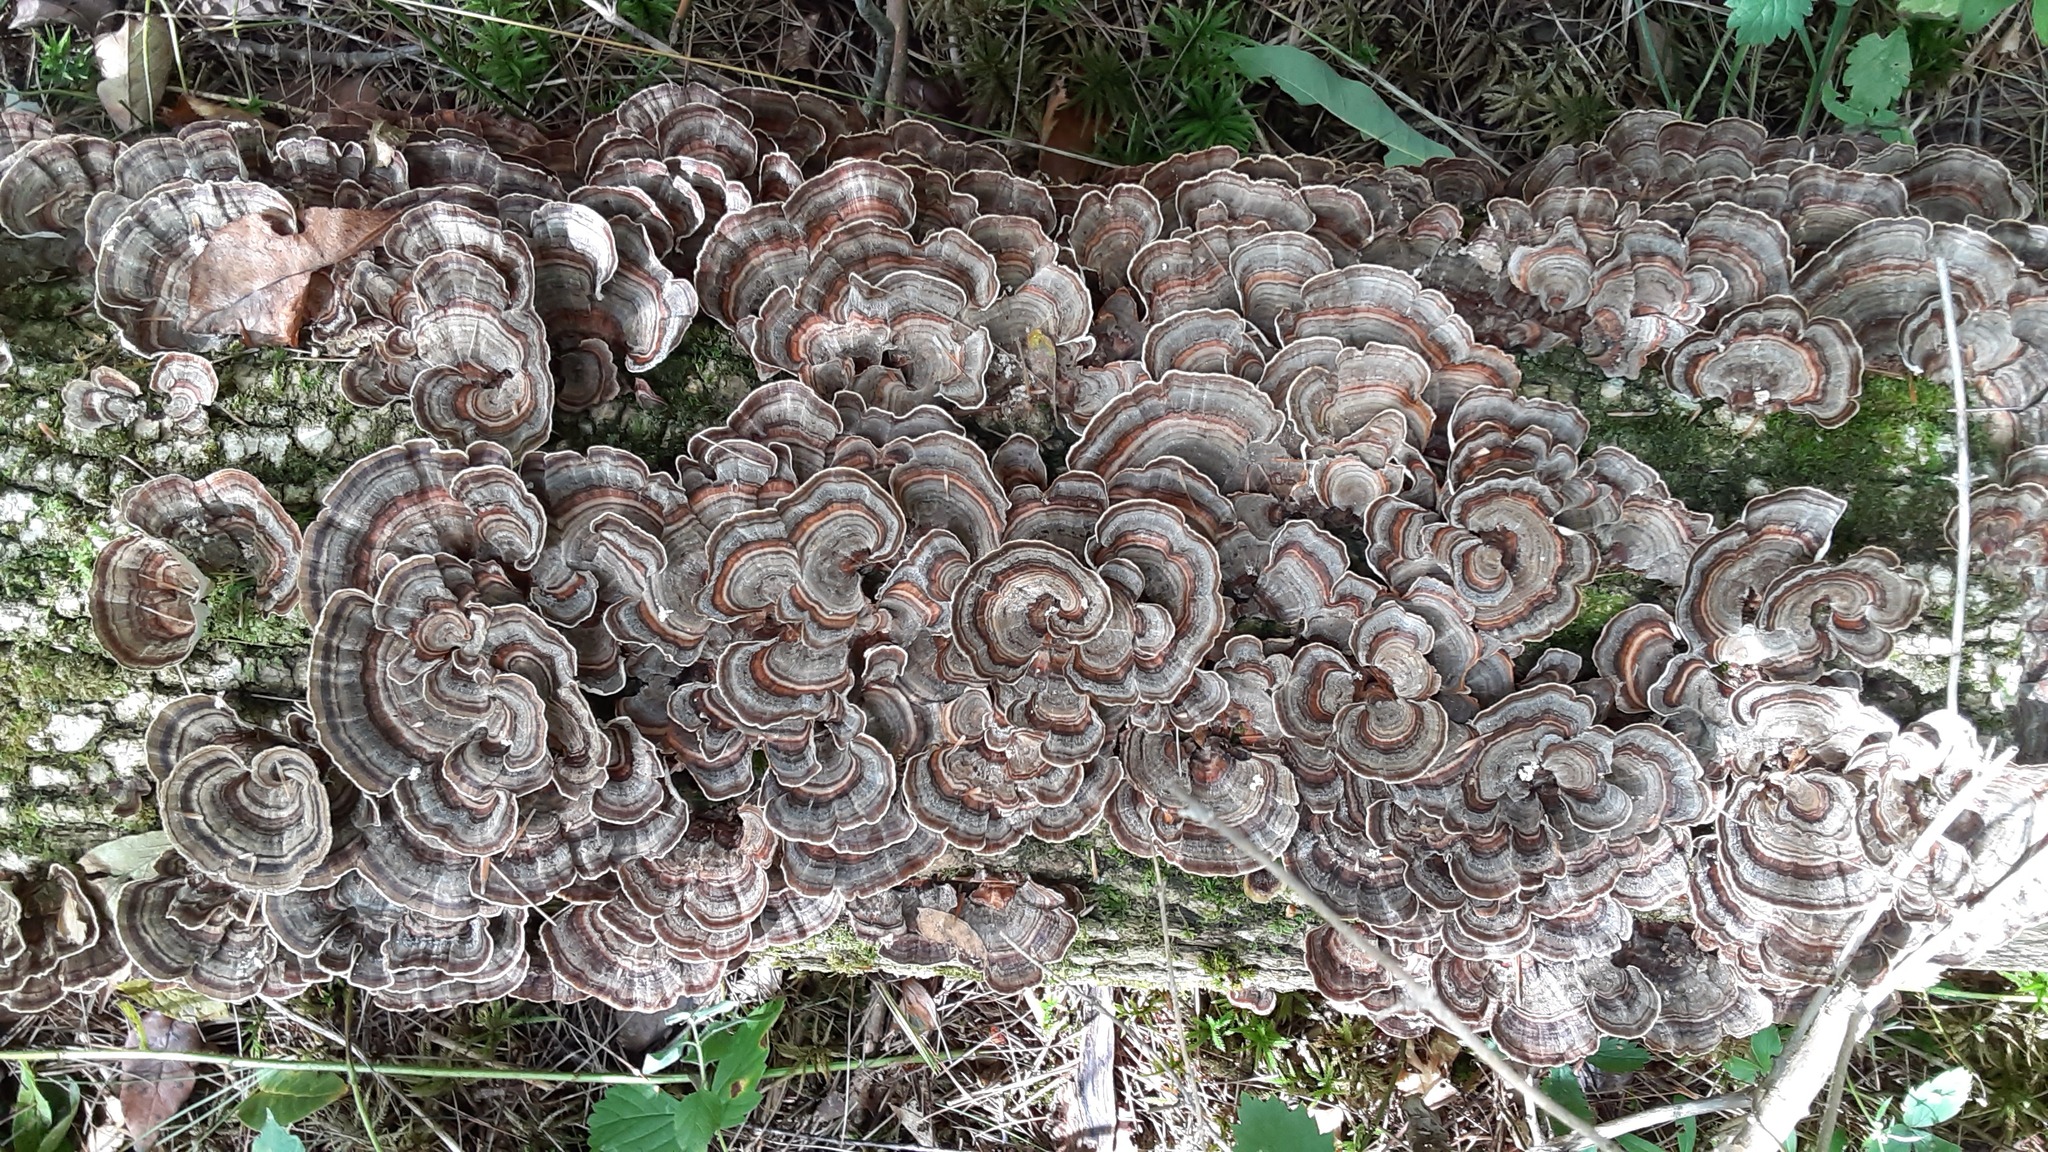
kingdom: Fungi
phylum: Basidiomycota
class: Agaricomycetes
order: Polyporales
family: Polyporaceae
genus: Trametes
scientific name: Trametes versicolor
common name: Turkeytail
